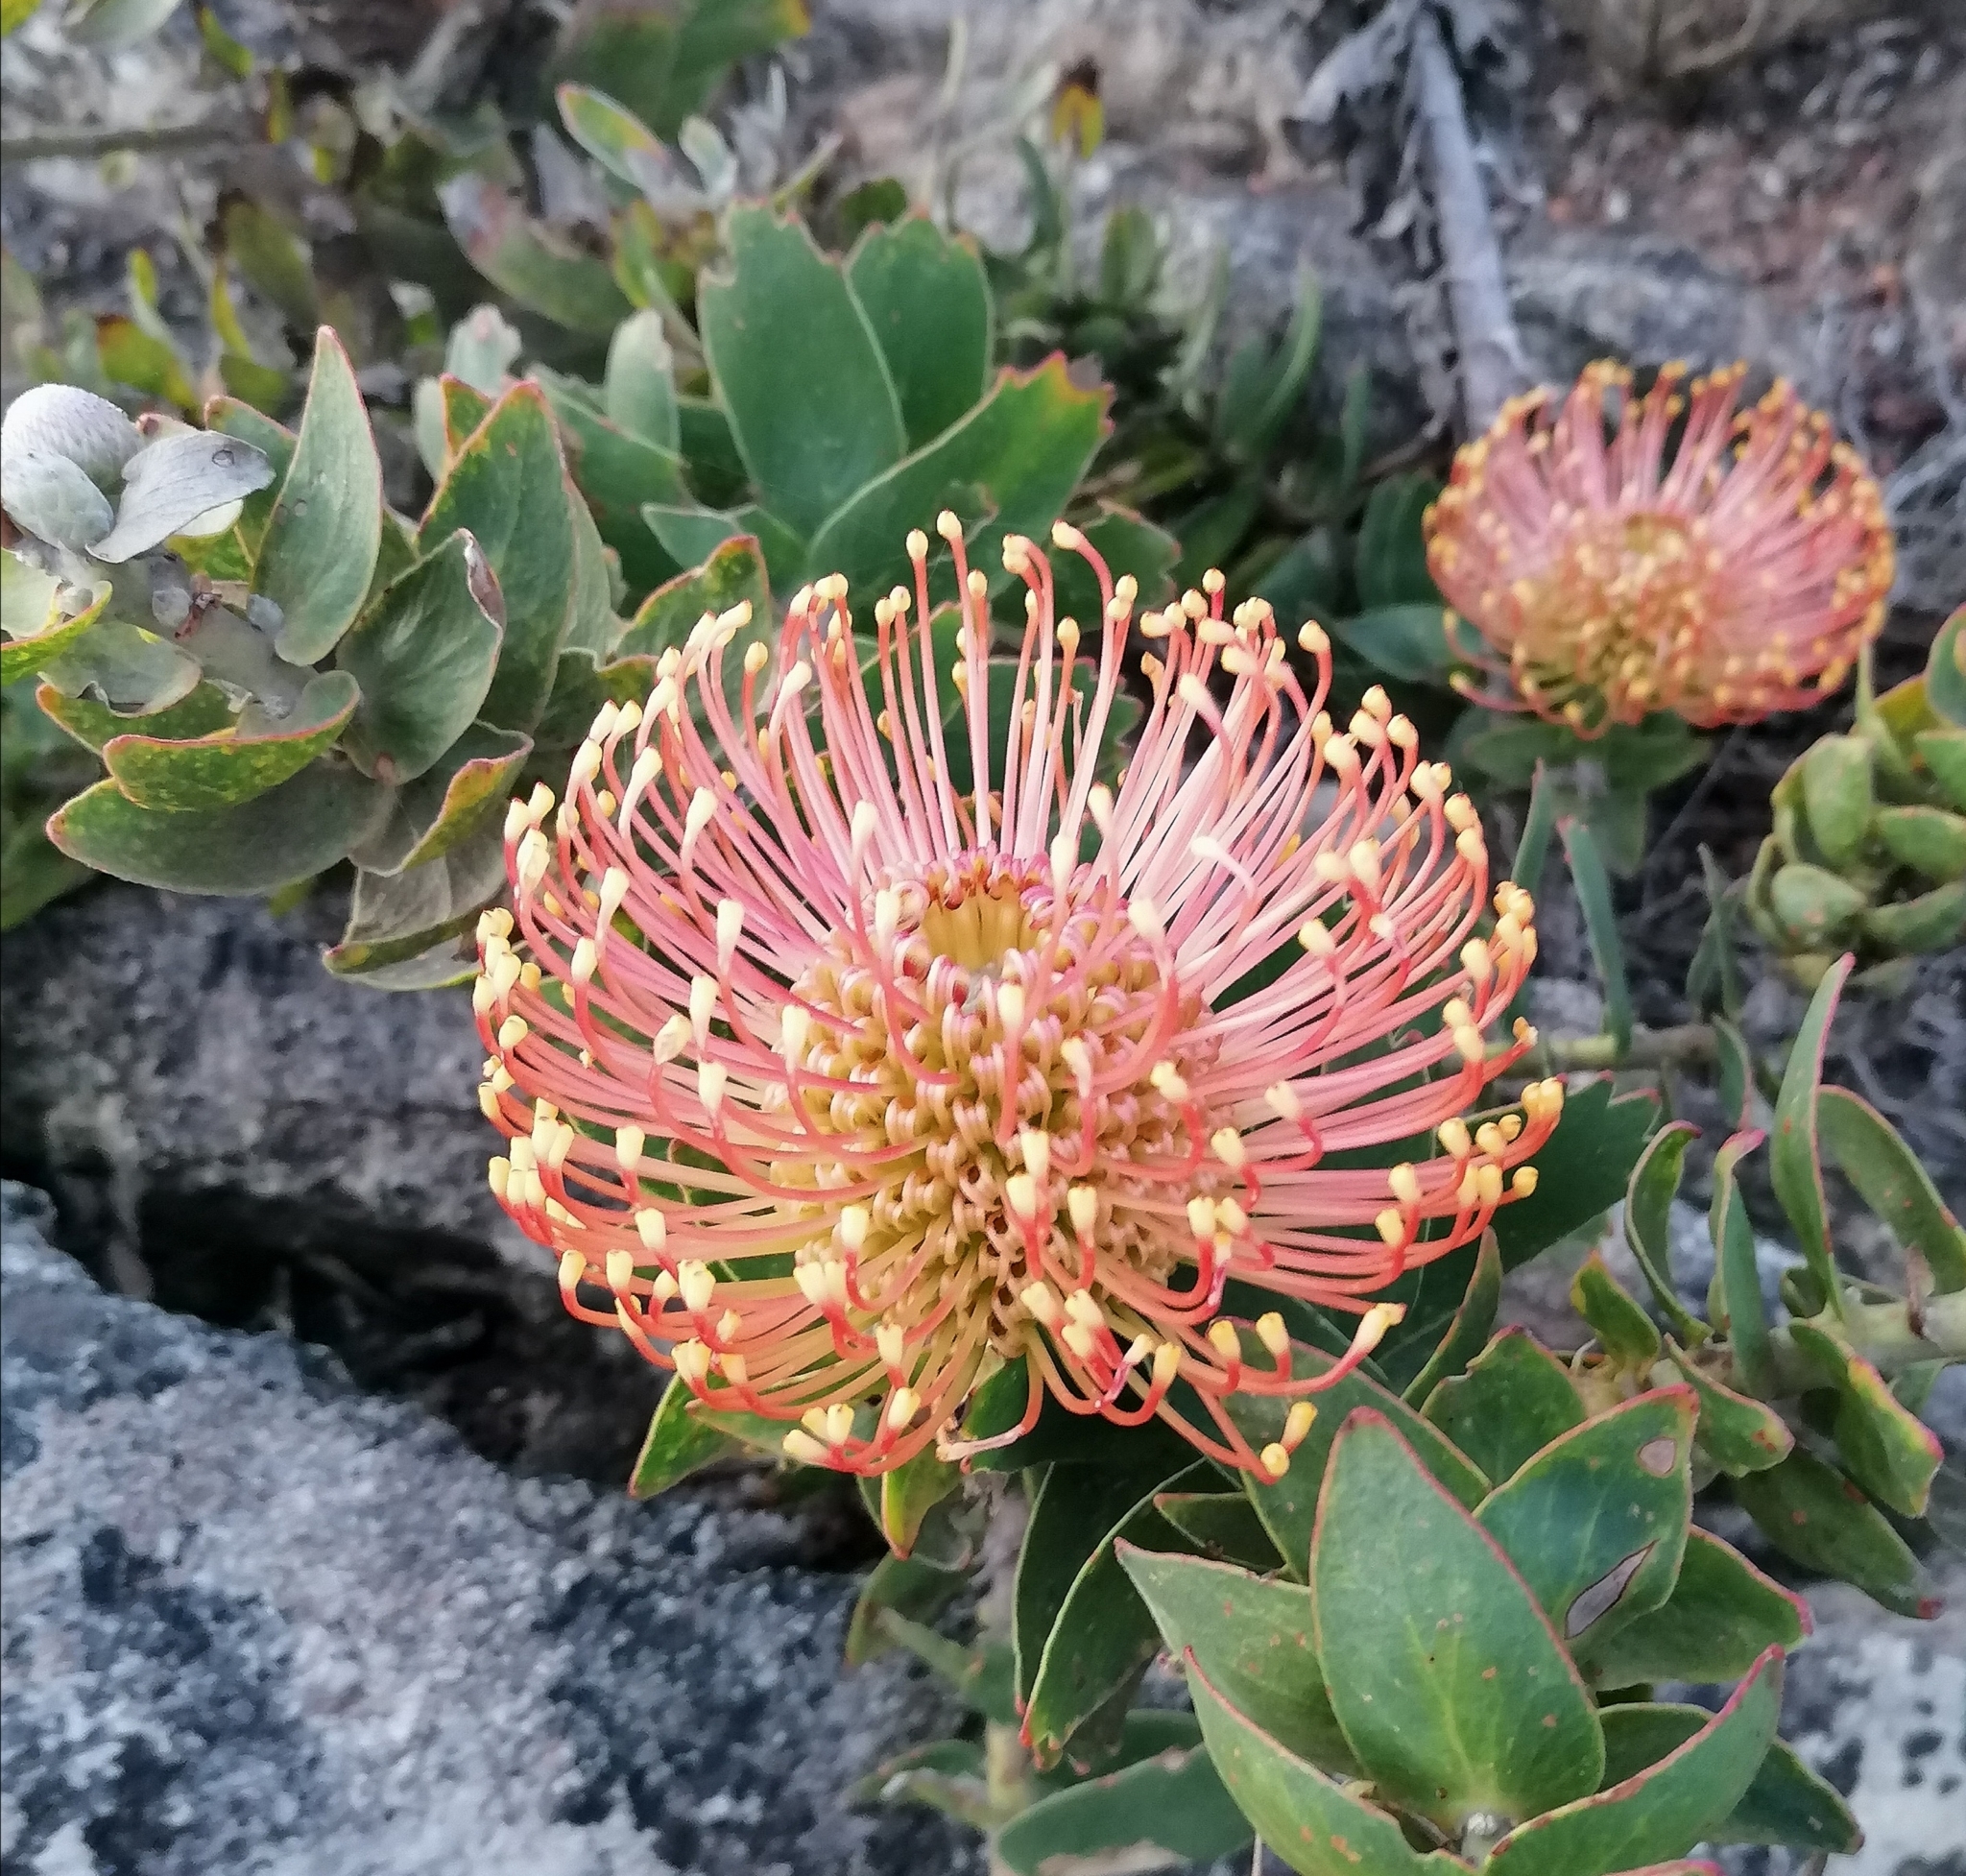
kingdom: Plantae
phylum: Tracheophyta
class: Magnoliopsida
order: Proteales
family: Proteaceae
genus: Leucospermum
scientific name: Leucospermum cordifolium
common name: Red pincushion-protea
